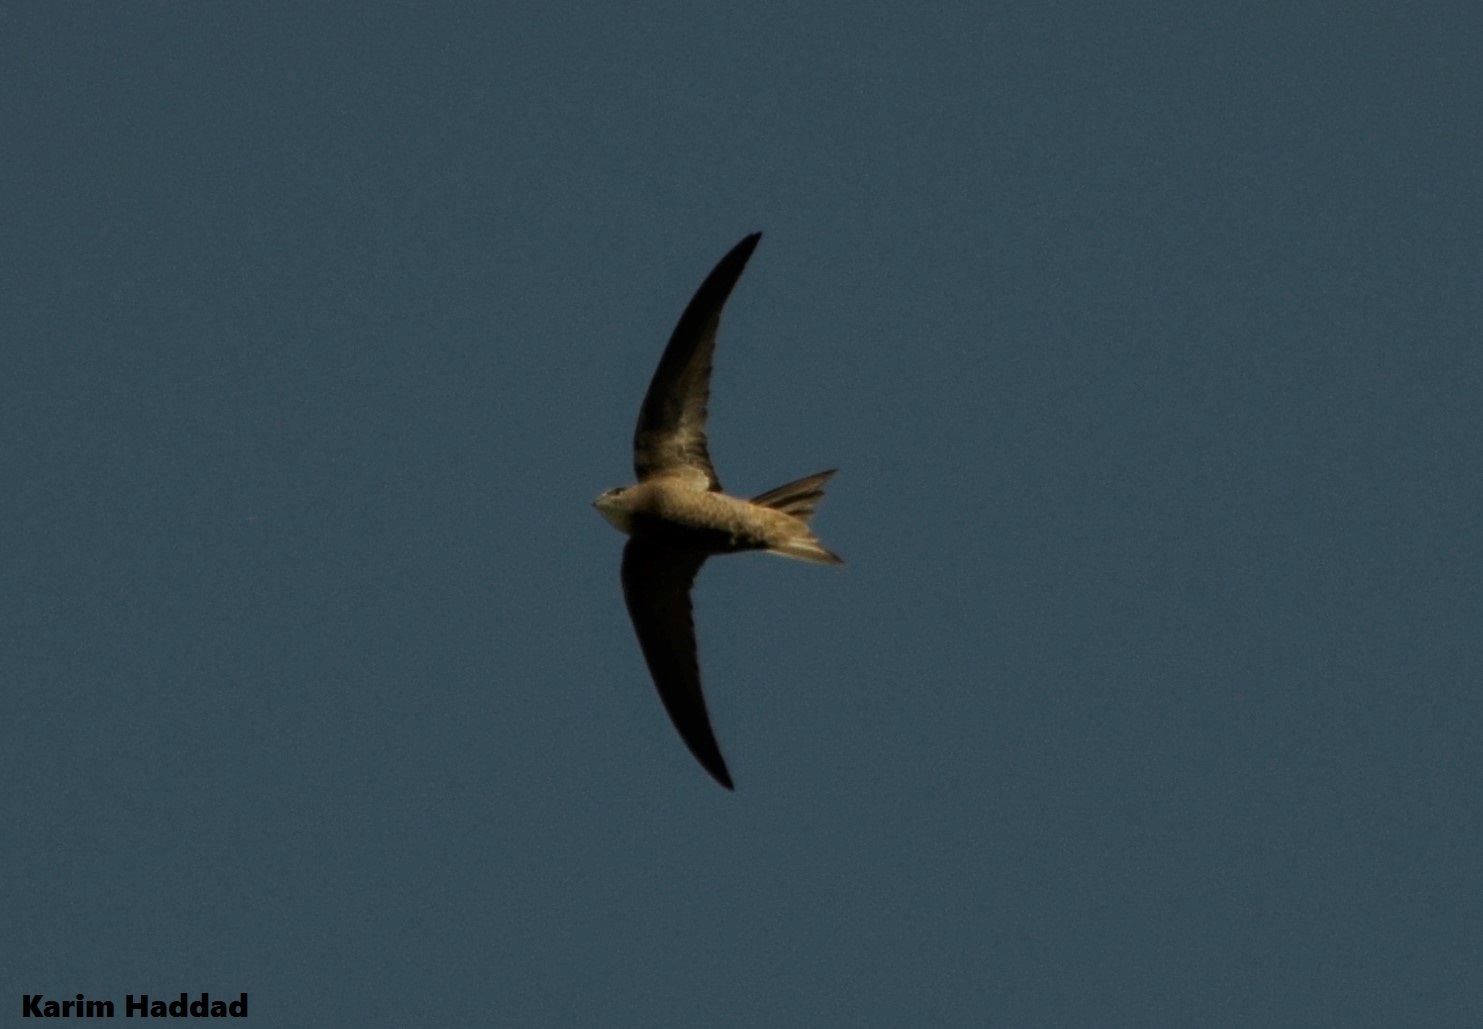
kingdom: Animalia
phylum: Chordata
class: Aves
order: Apodiformes
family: Apodidae
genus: Apus
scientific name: Apus pallidus
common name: Pallid swift
